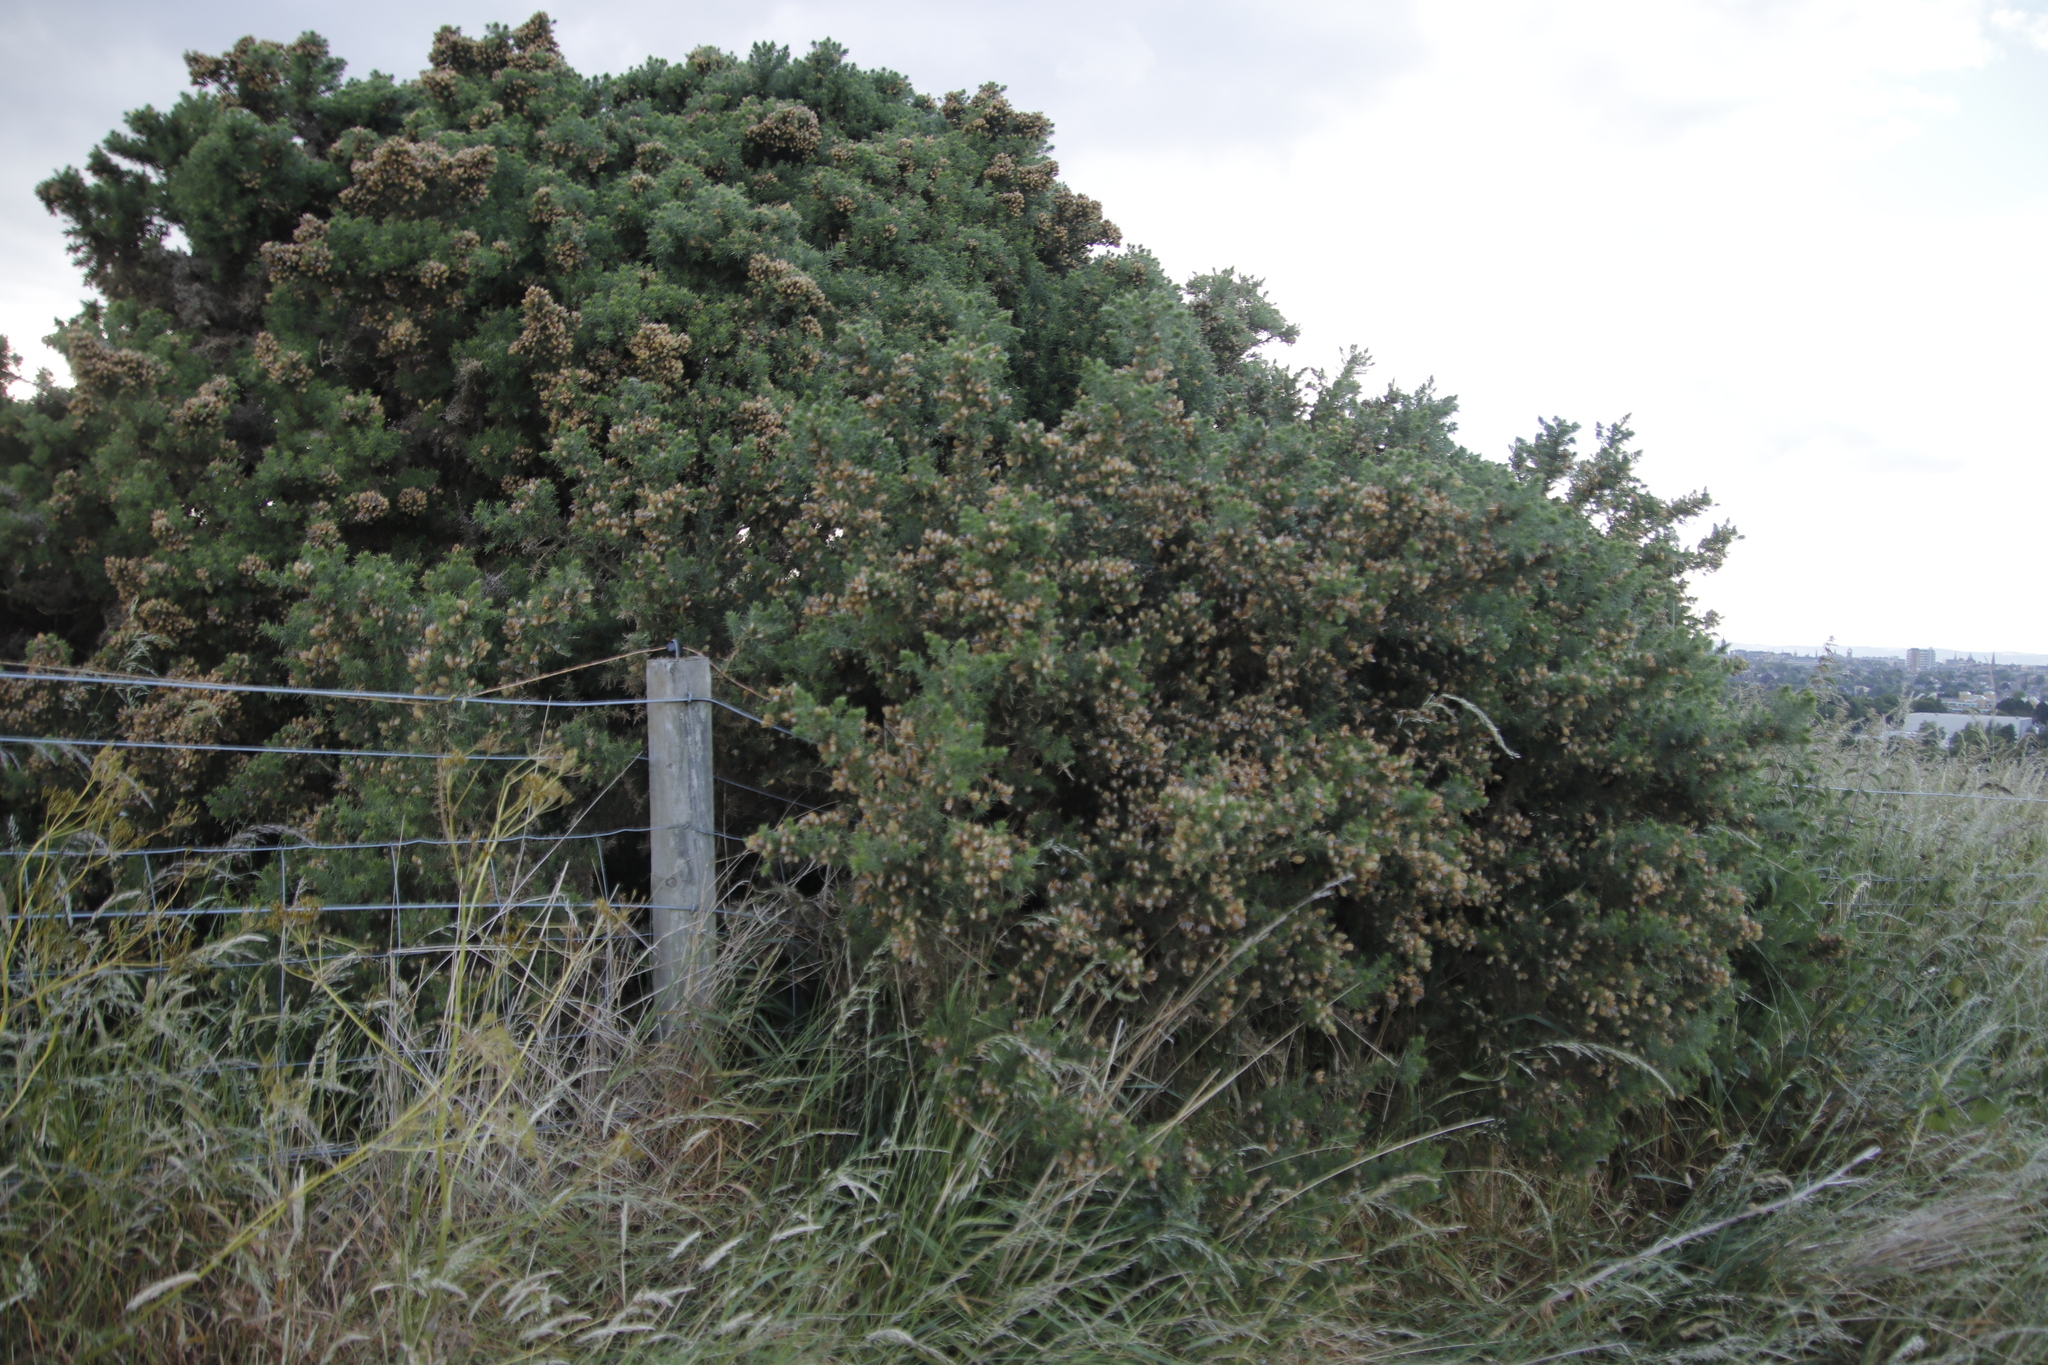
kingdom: Plantae
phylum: Tracheophyta
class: Magnoliopsida
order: Fabales
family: Fabaceae
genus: Ulex
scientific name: Ulex europaeus
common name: Common gorse
